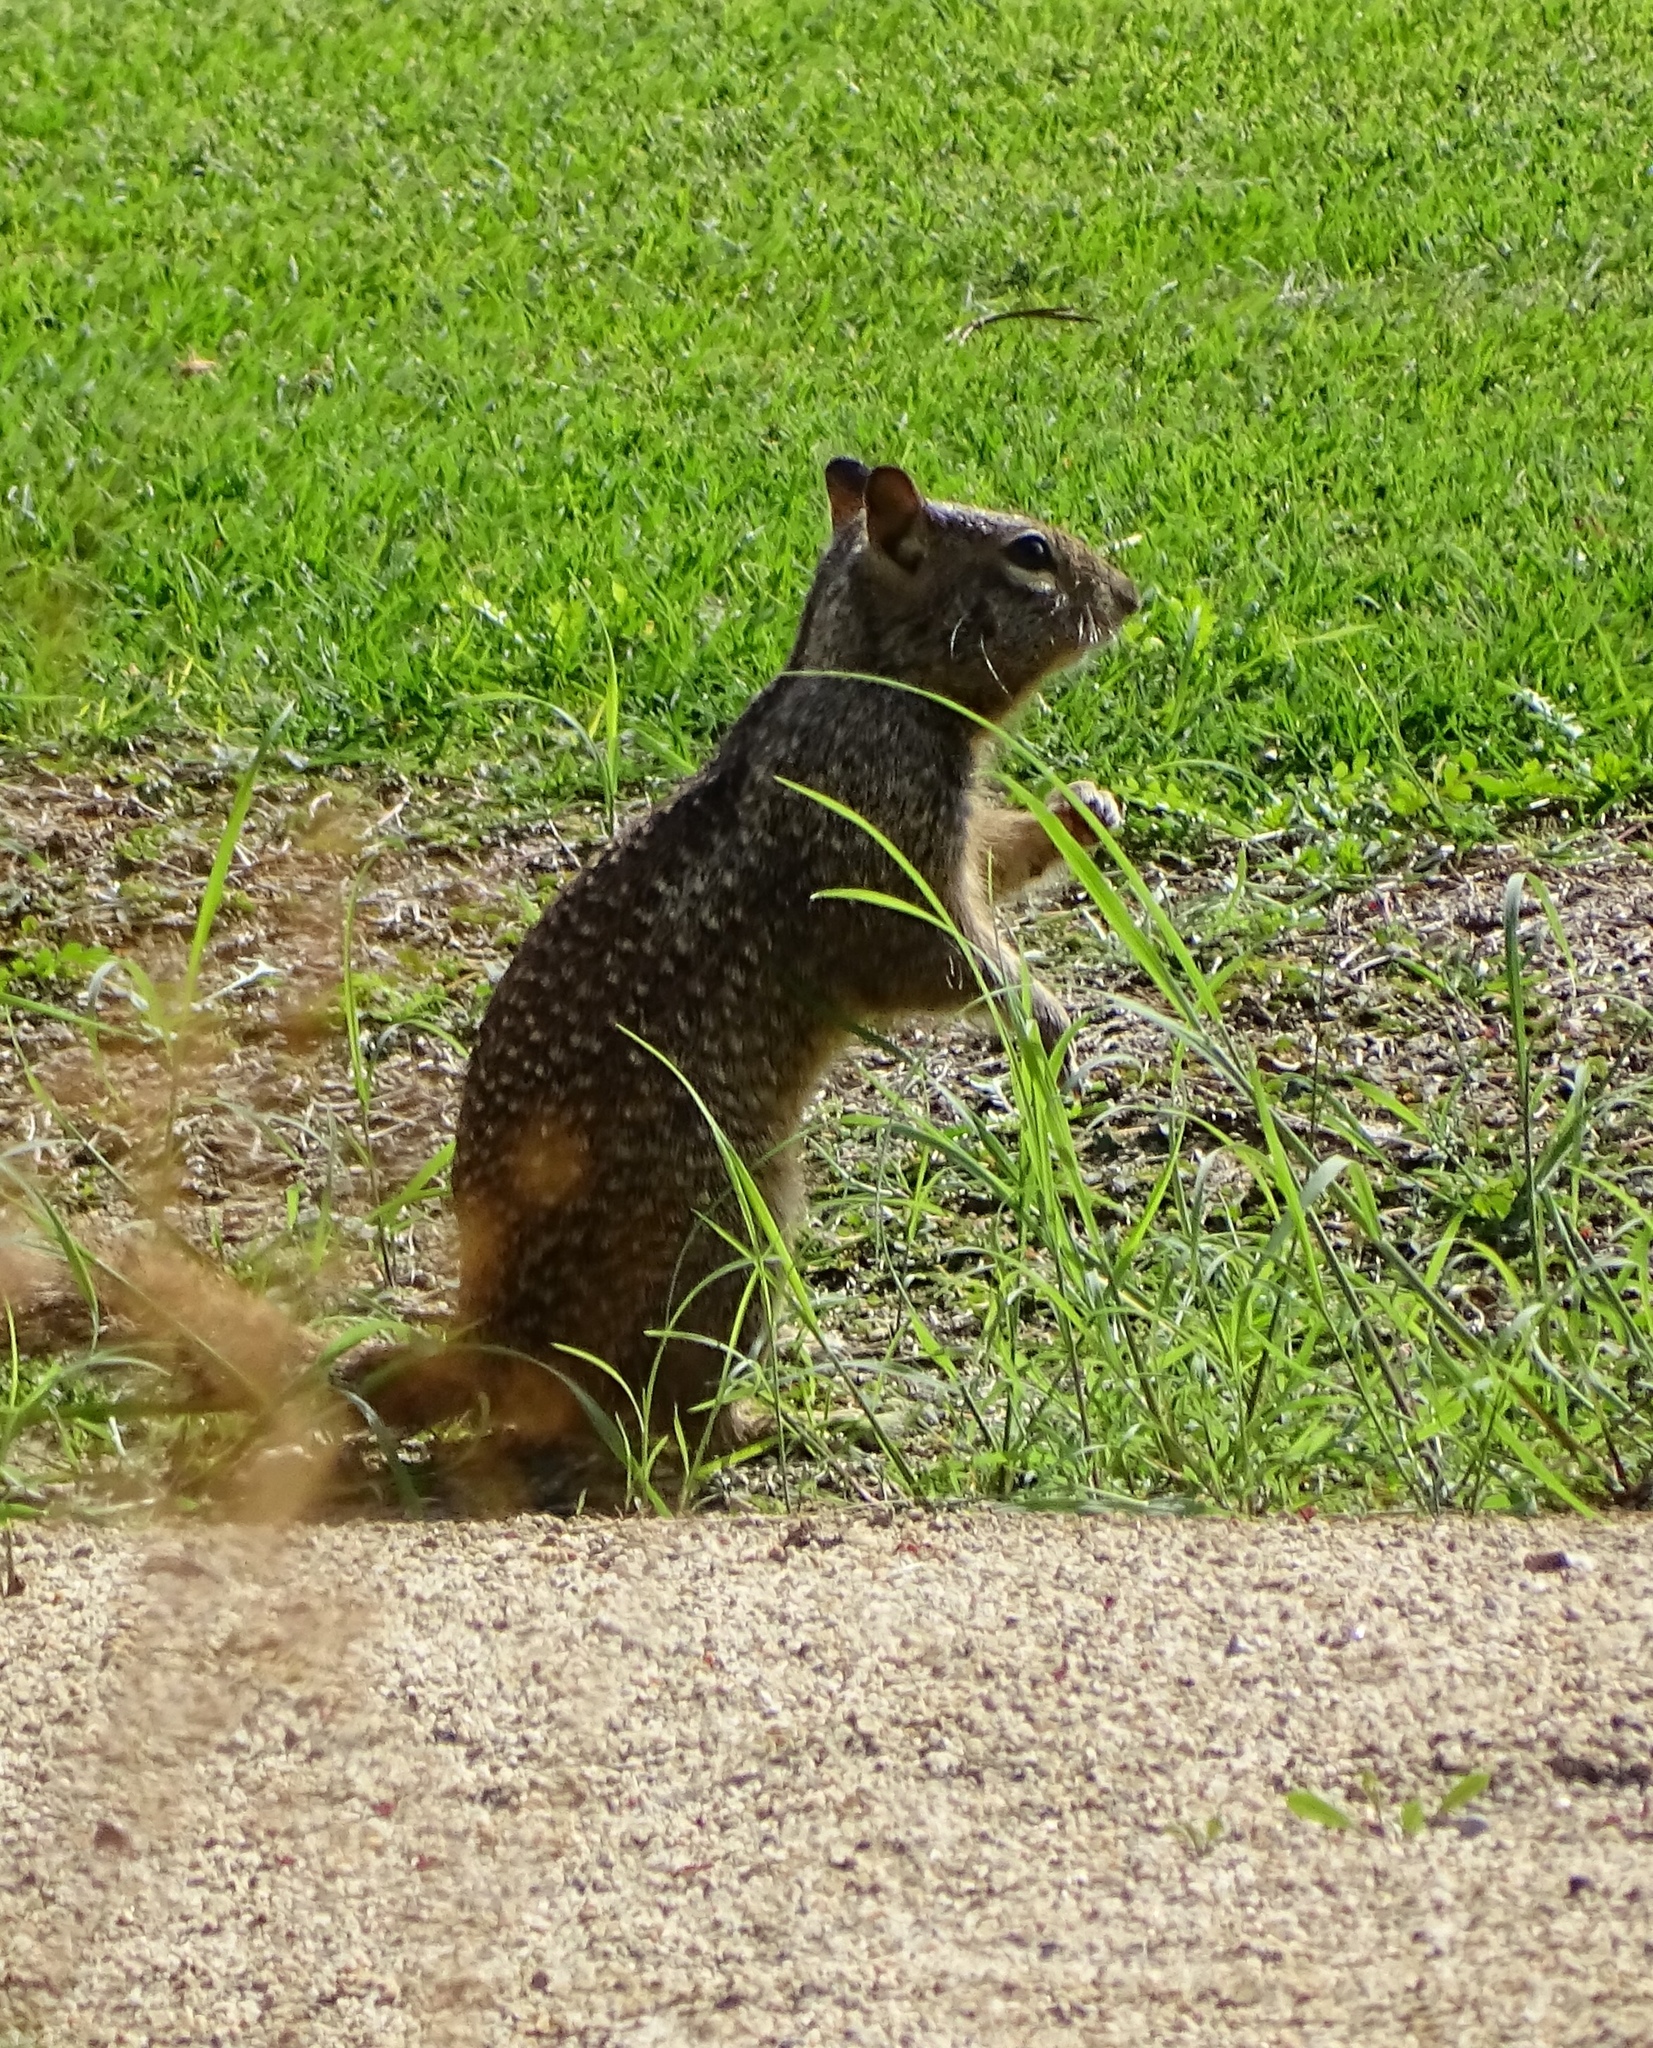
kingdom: Animalia
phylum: Chordata
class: Mammalia
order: Rodentia
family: Sciuridae
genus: Otospermophilus
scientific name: Otospermophilus beecheyi
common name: California ground squirrel
